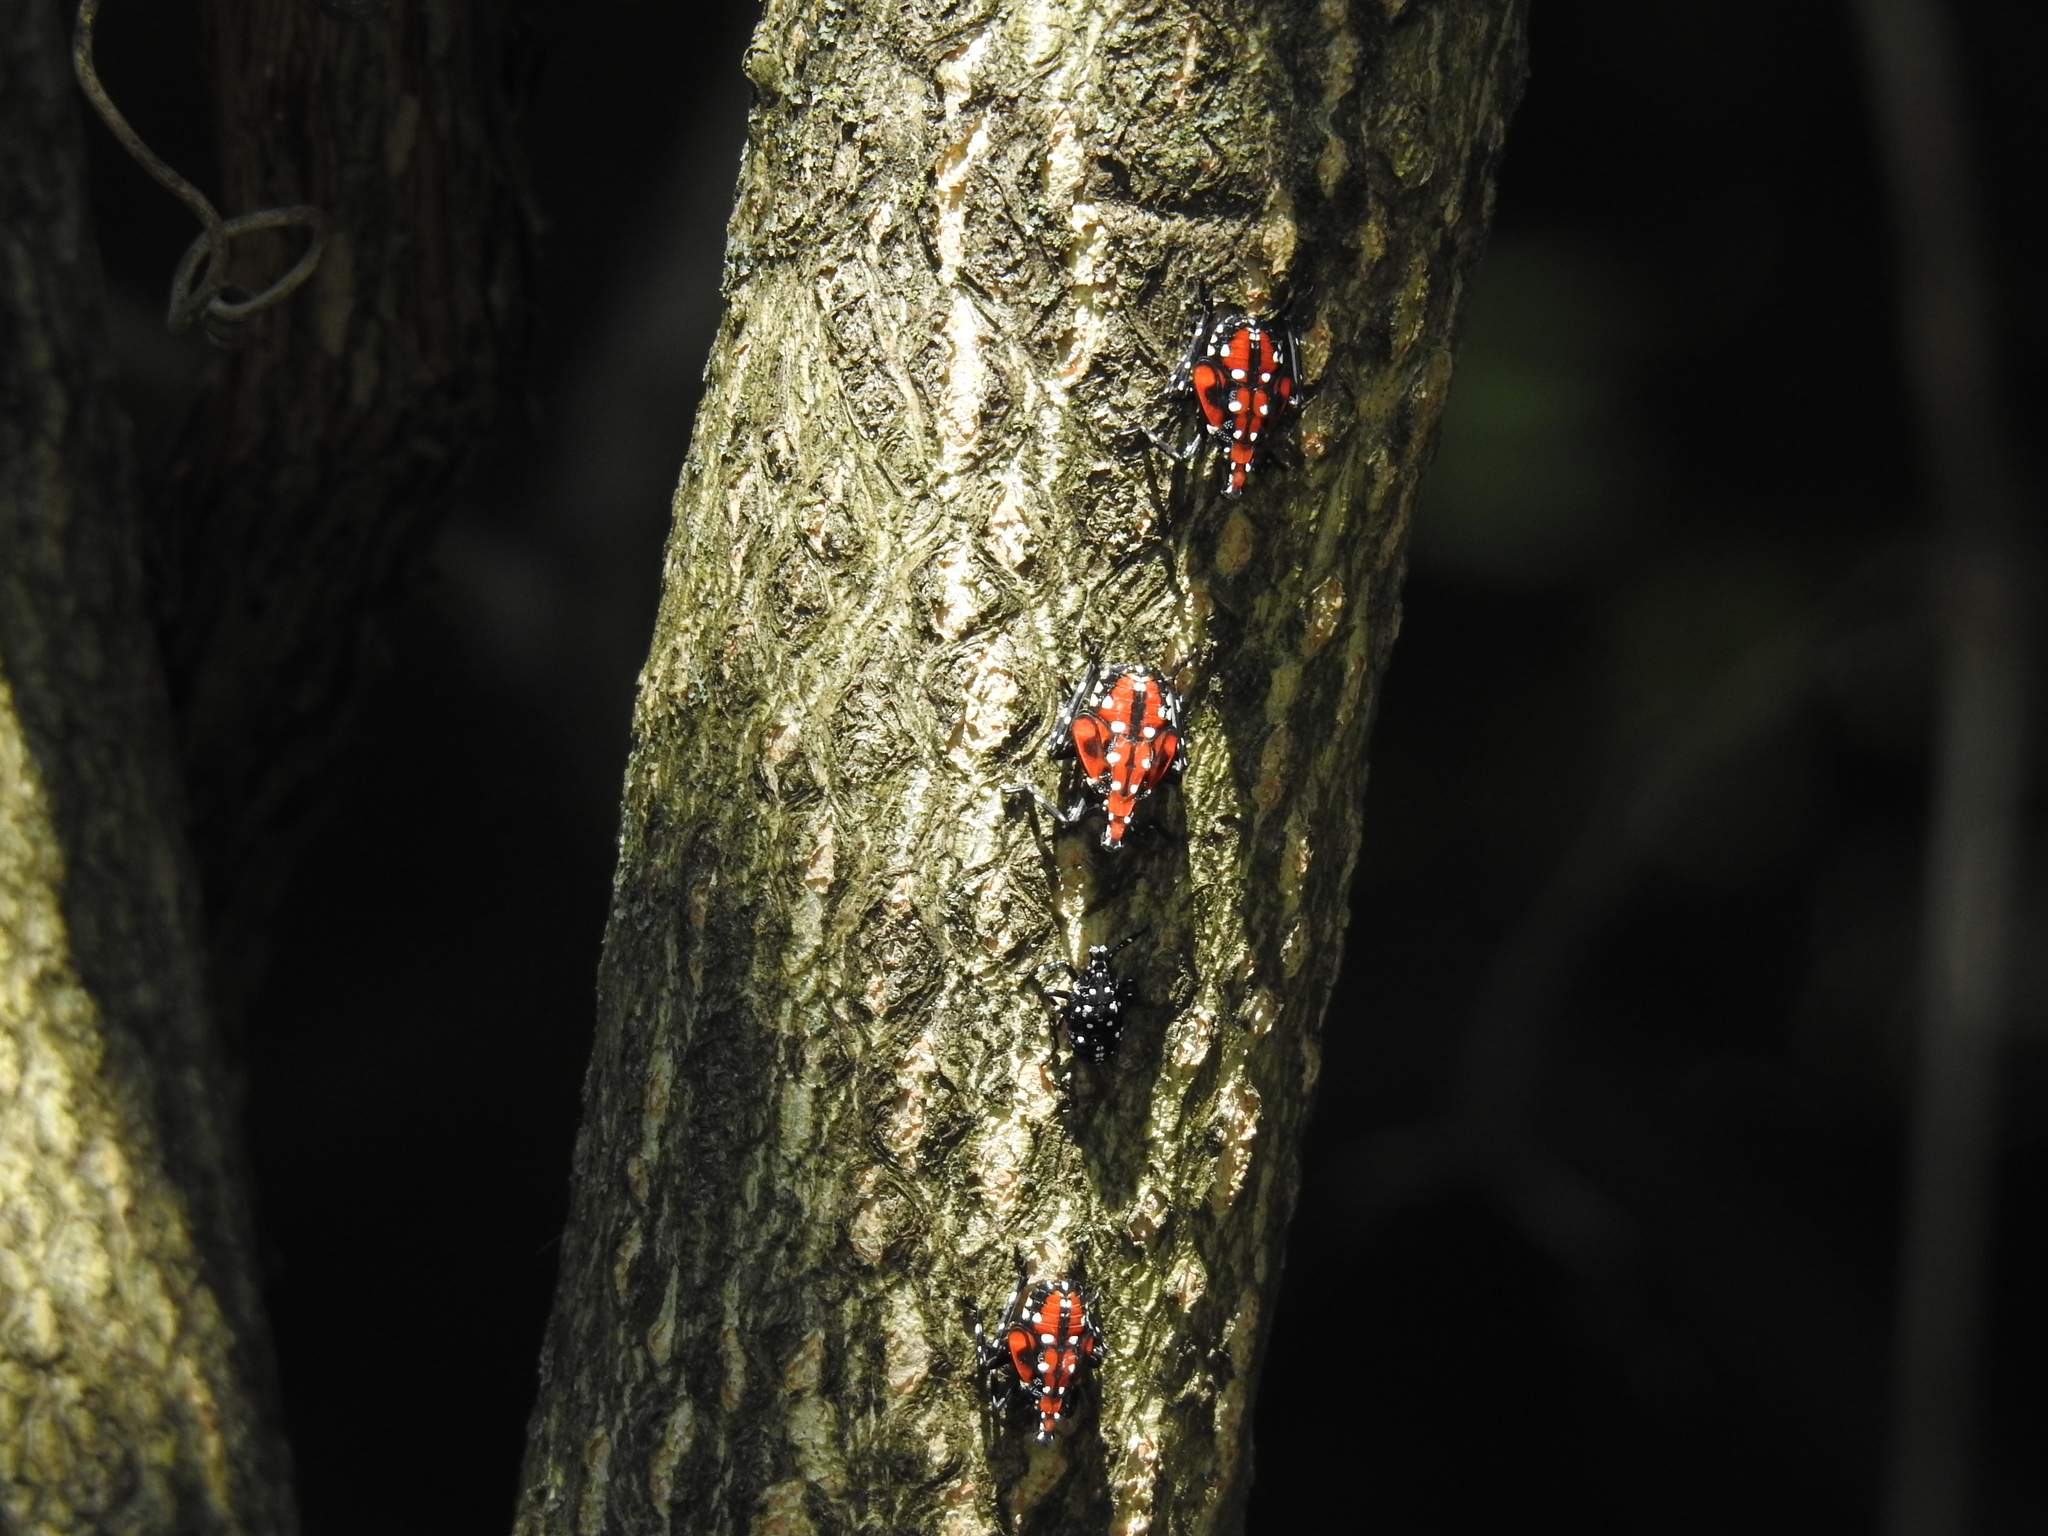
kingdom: Animalia
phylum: Arthropoda
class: Insecta
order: Hemiptera
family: Fulgoridae
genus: Lycorma
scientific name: Lycorma delicatula
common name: Spotted lanternfly
